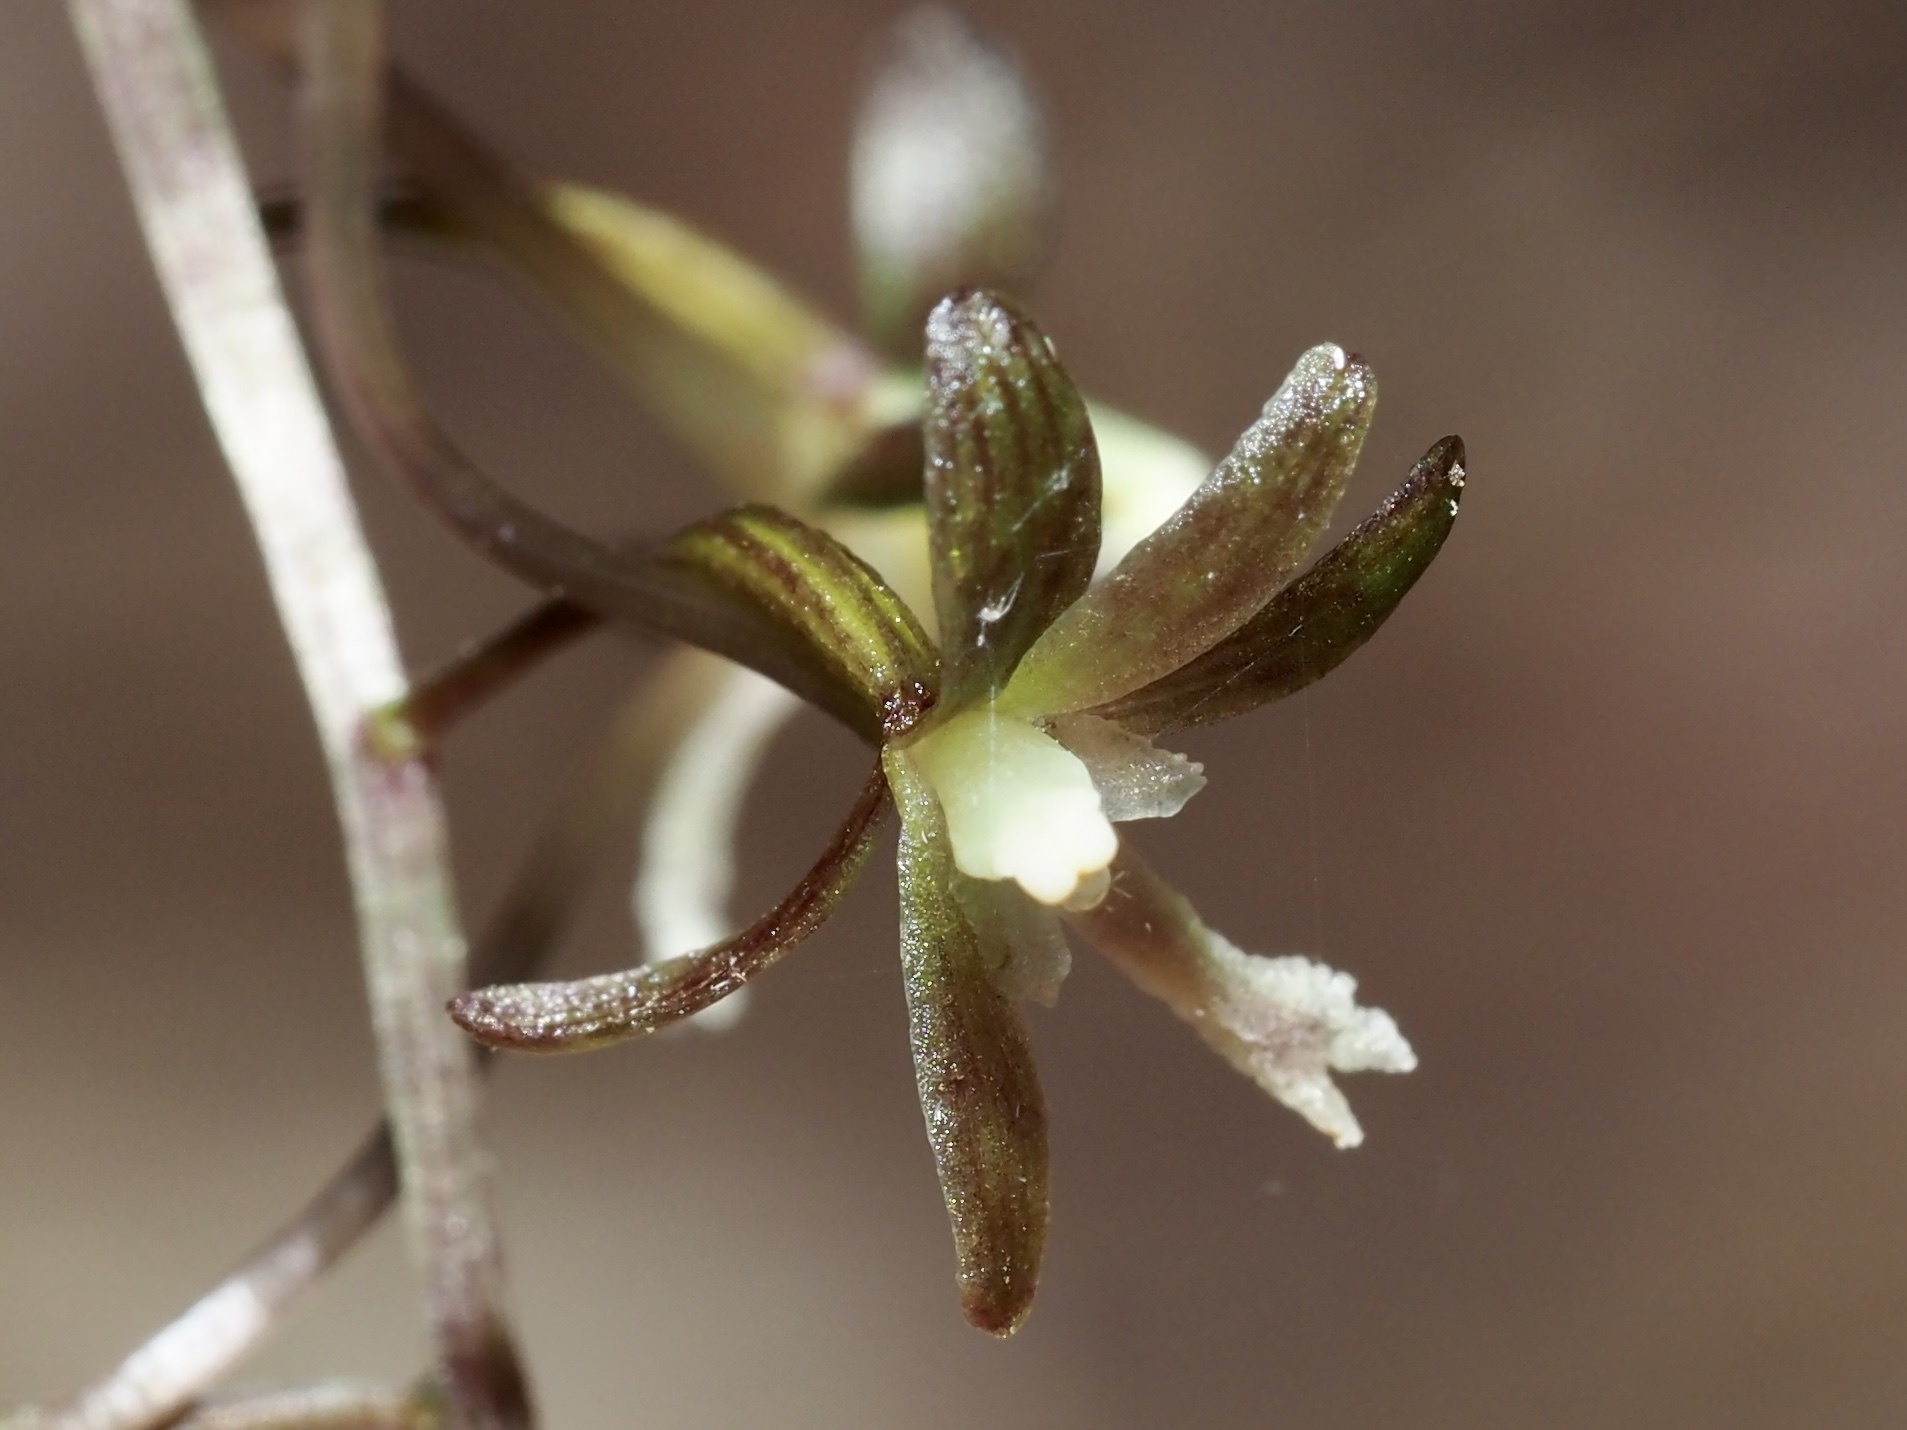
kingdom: Plantae
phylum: Tracheophyta
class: Liliopsida
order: Asparagales
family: Orchidaceae
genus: Tipularia
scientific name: Tipularia discolor
